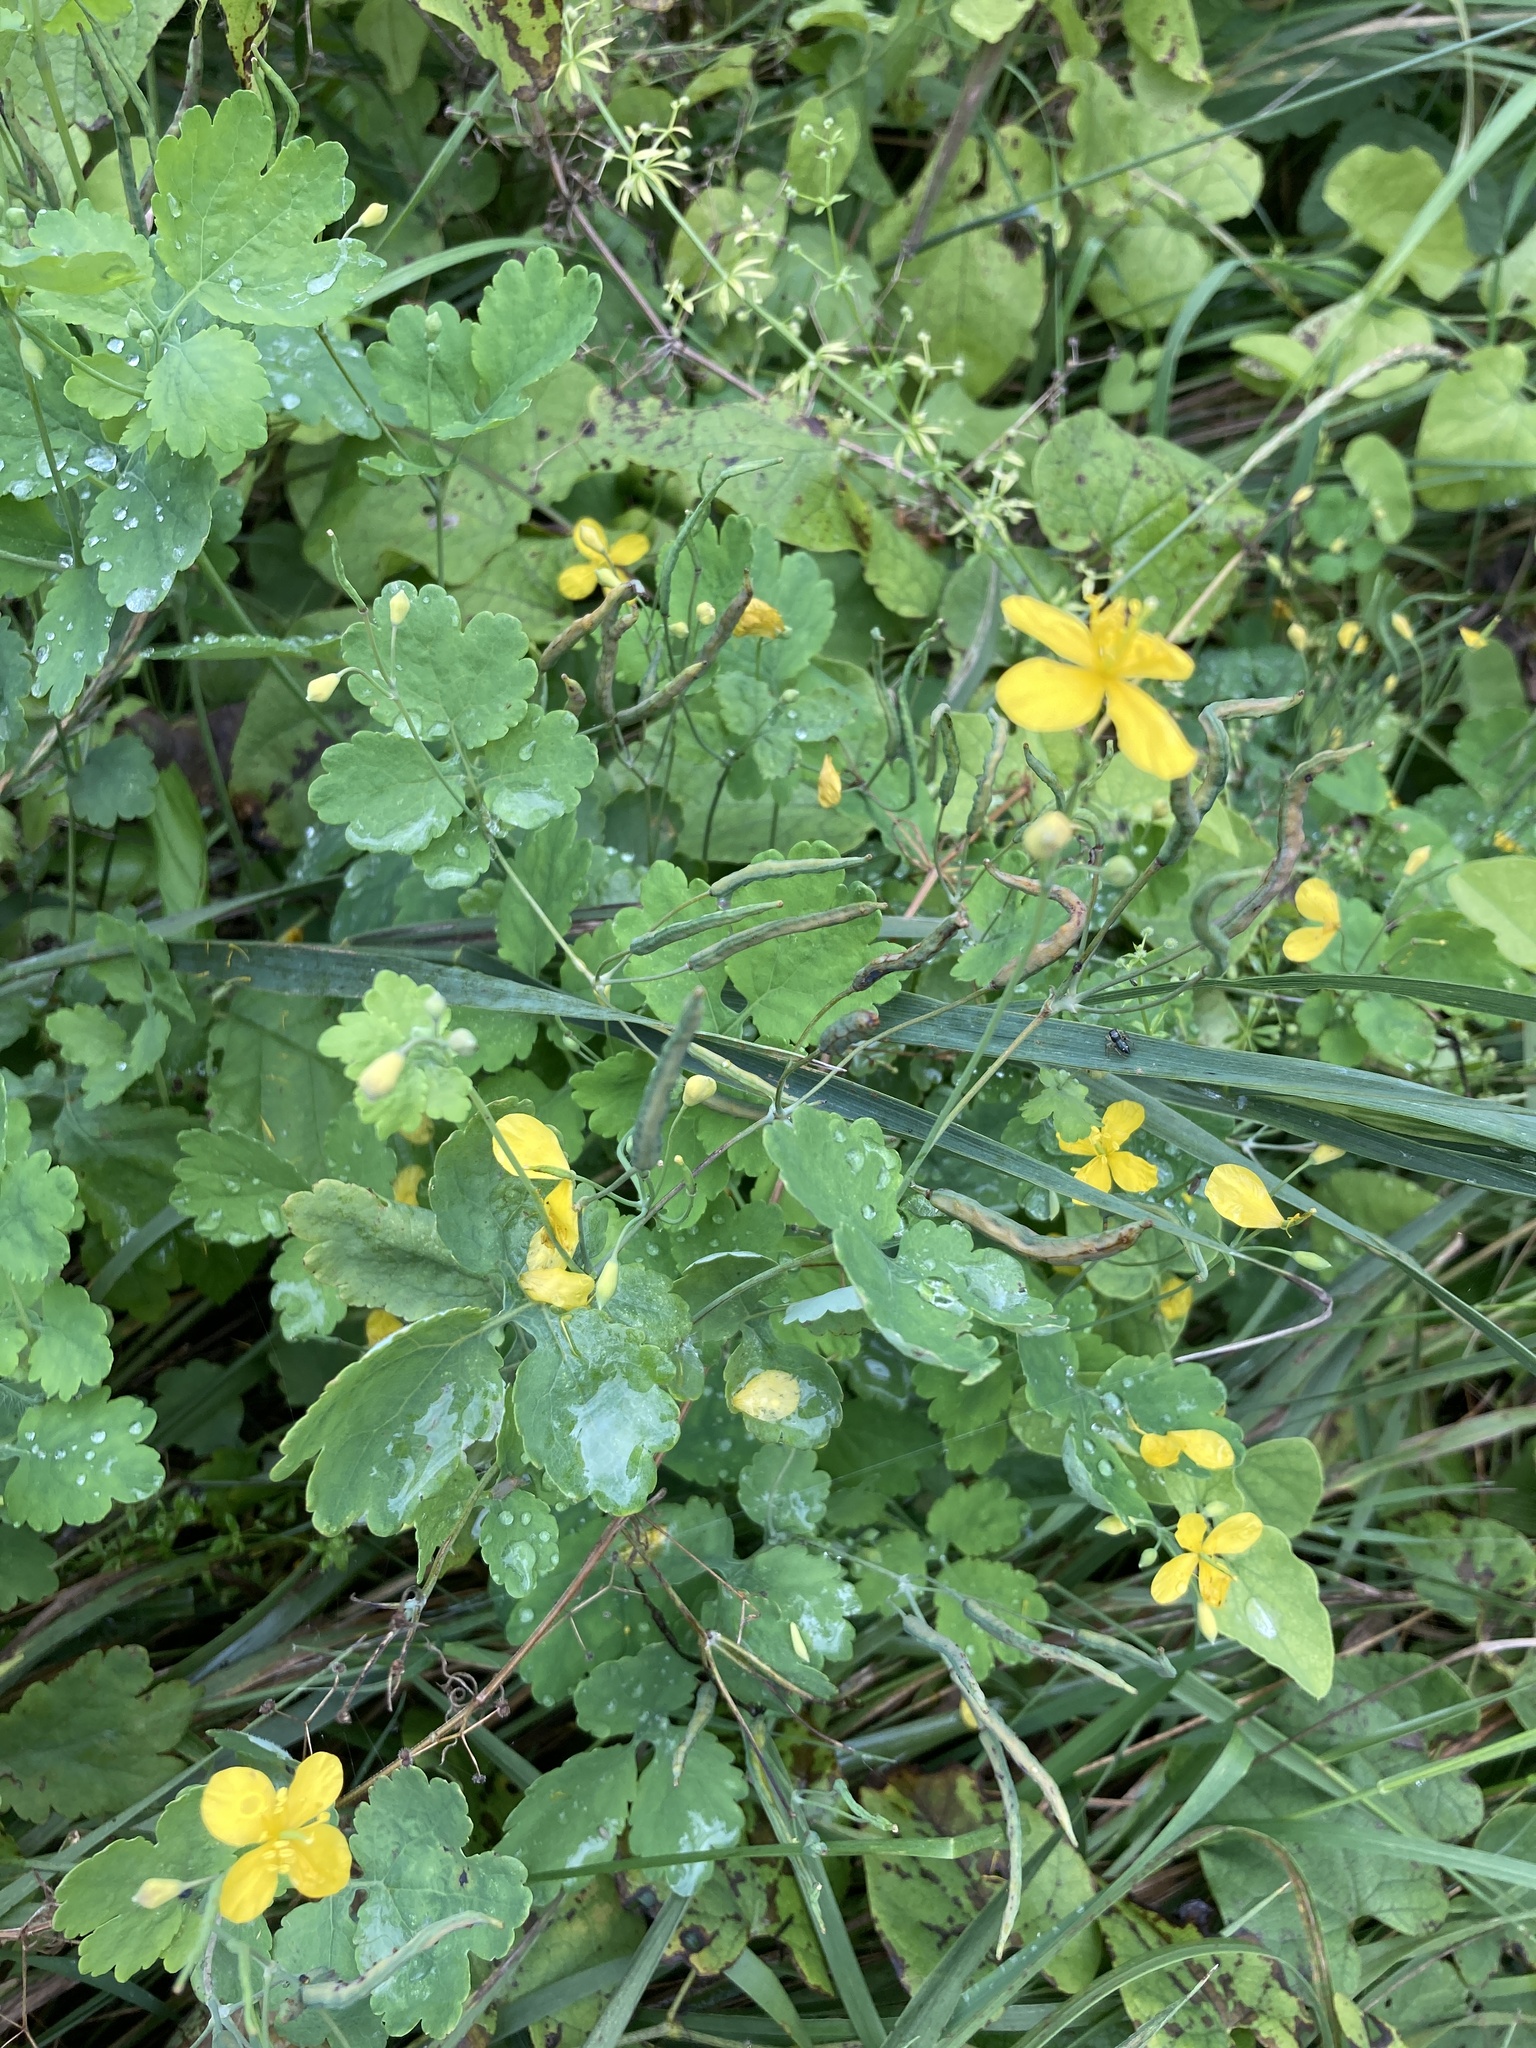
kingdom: Plantae
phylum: Tracheophyta
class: Magnoliopsida
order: Ranunculales
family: Papaveraceae
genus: Chelidonium
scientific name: Chelidonium majus
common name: Greater celandine
